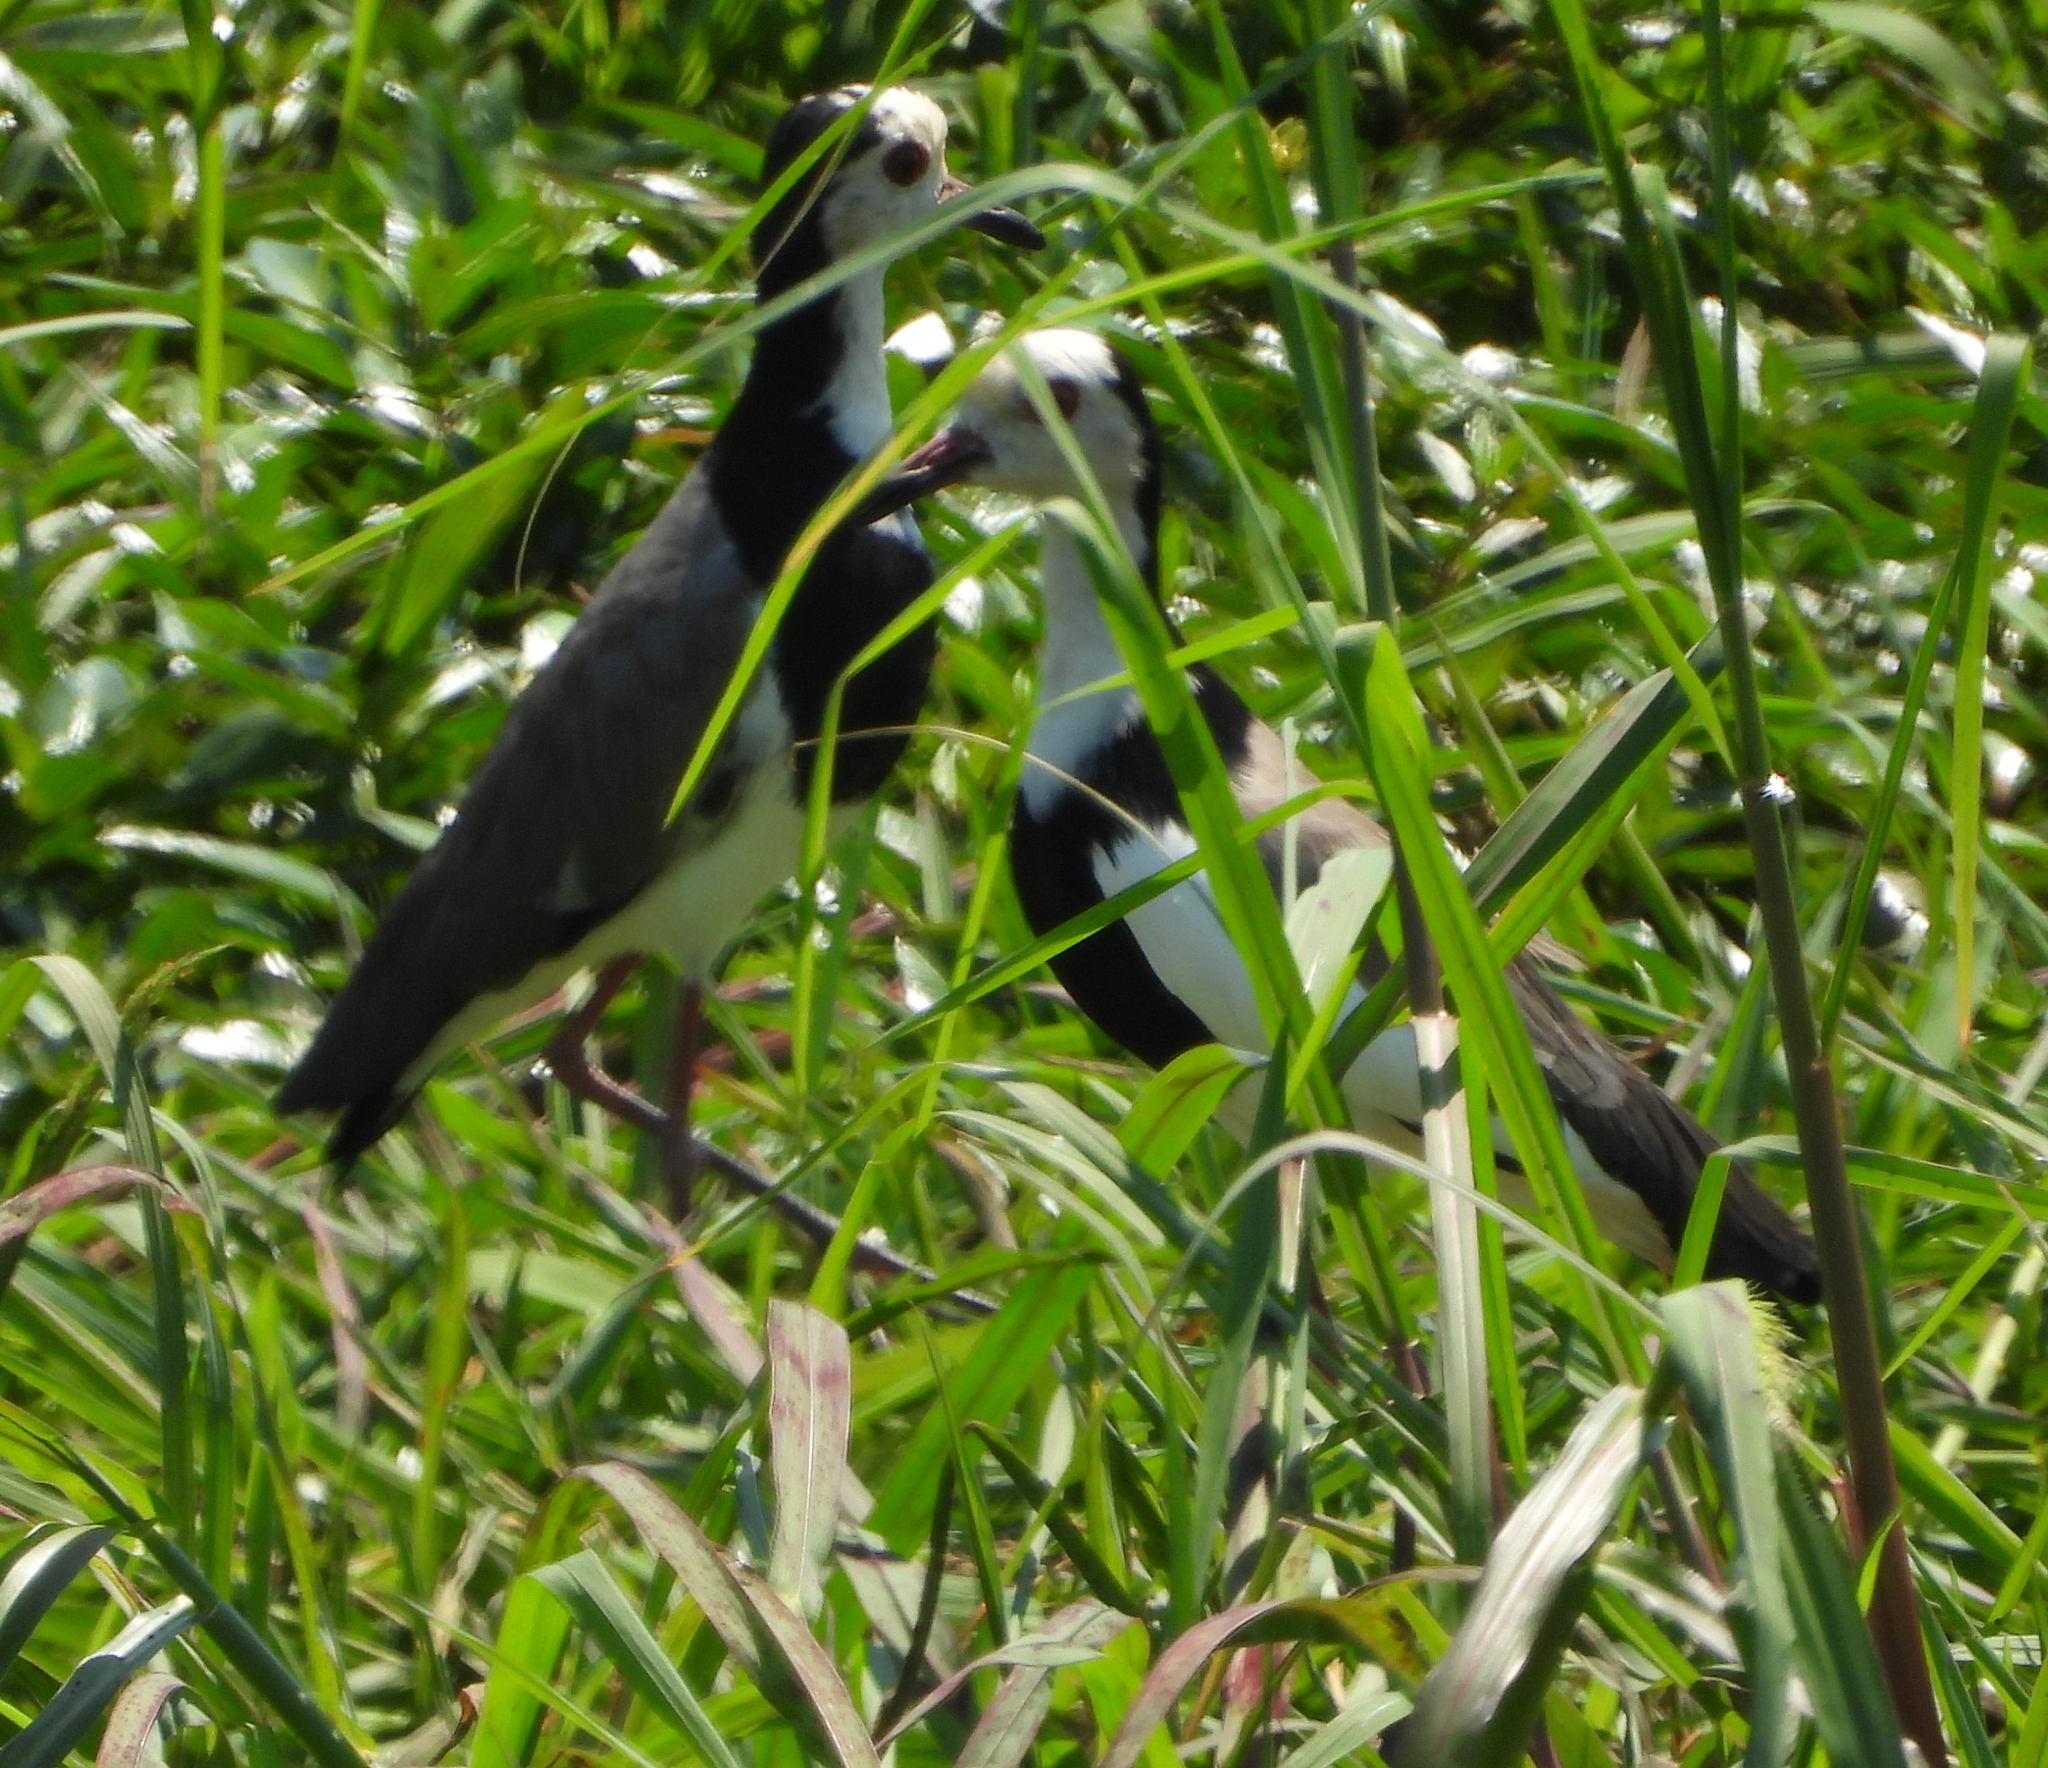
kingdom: Animalia
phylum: Chordata
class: Aves
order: Charadriiformes
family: Charadriidae
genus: Vanellus
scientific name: Vanellus crassirostris
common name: Long-toed lapwing
